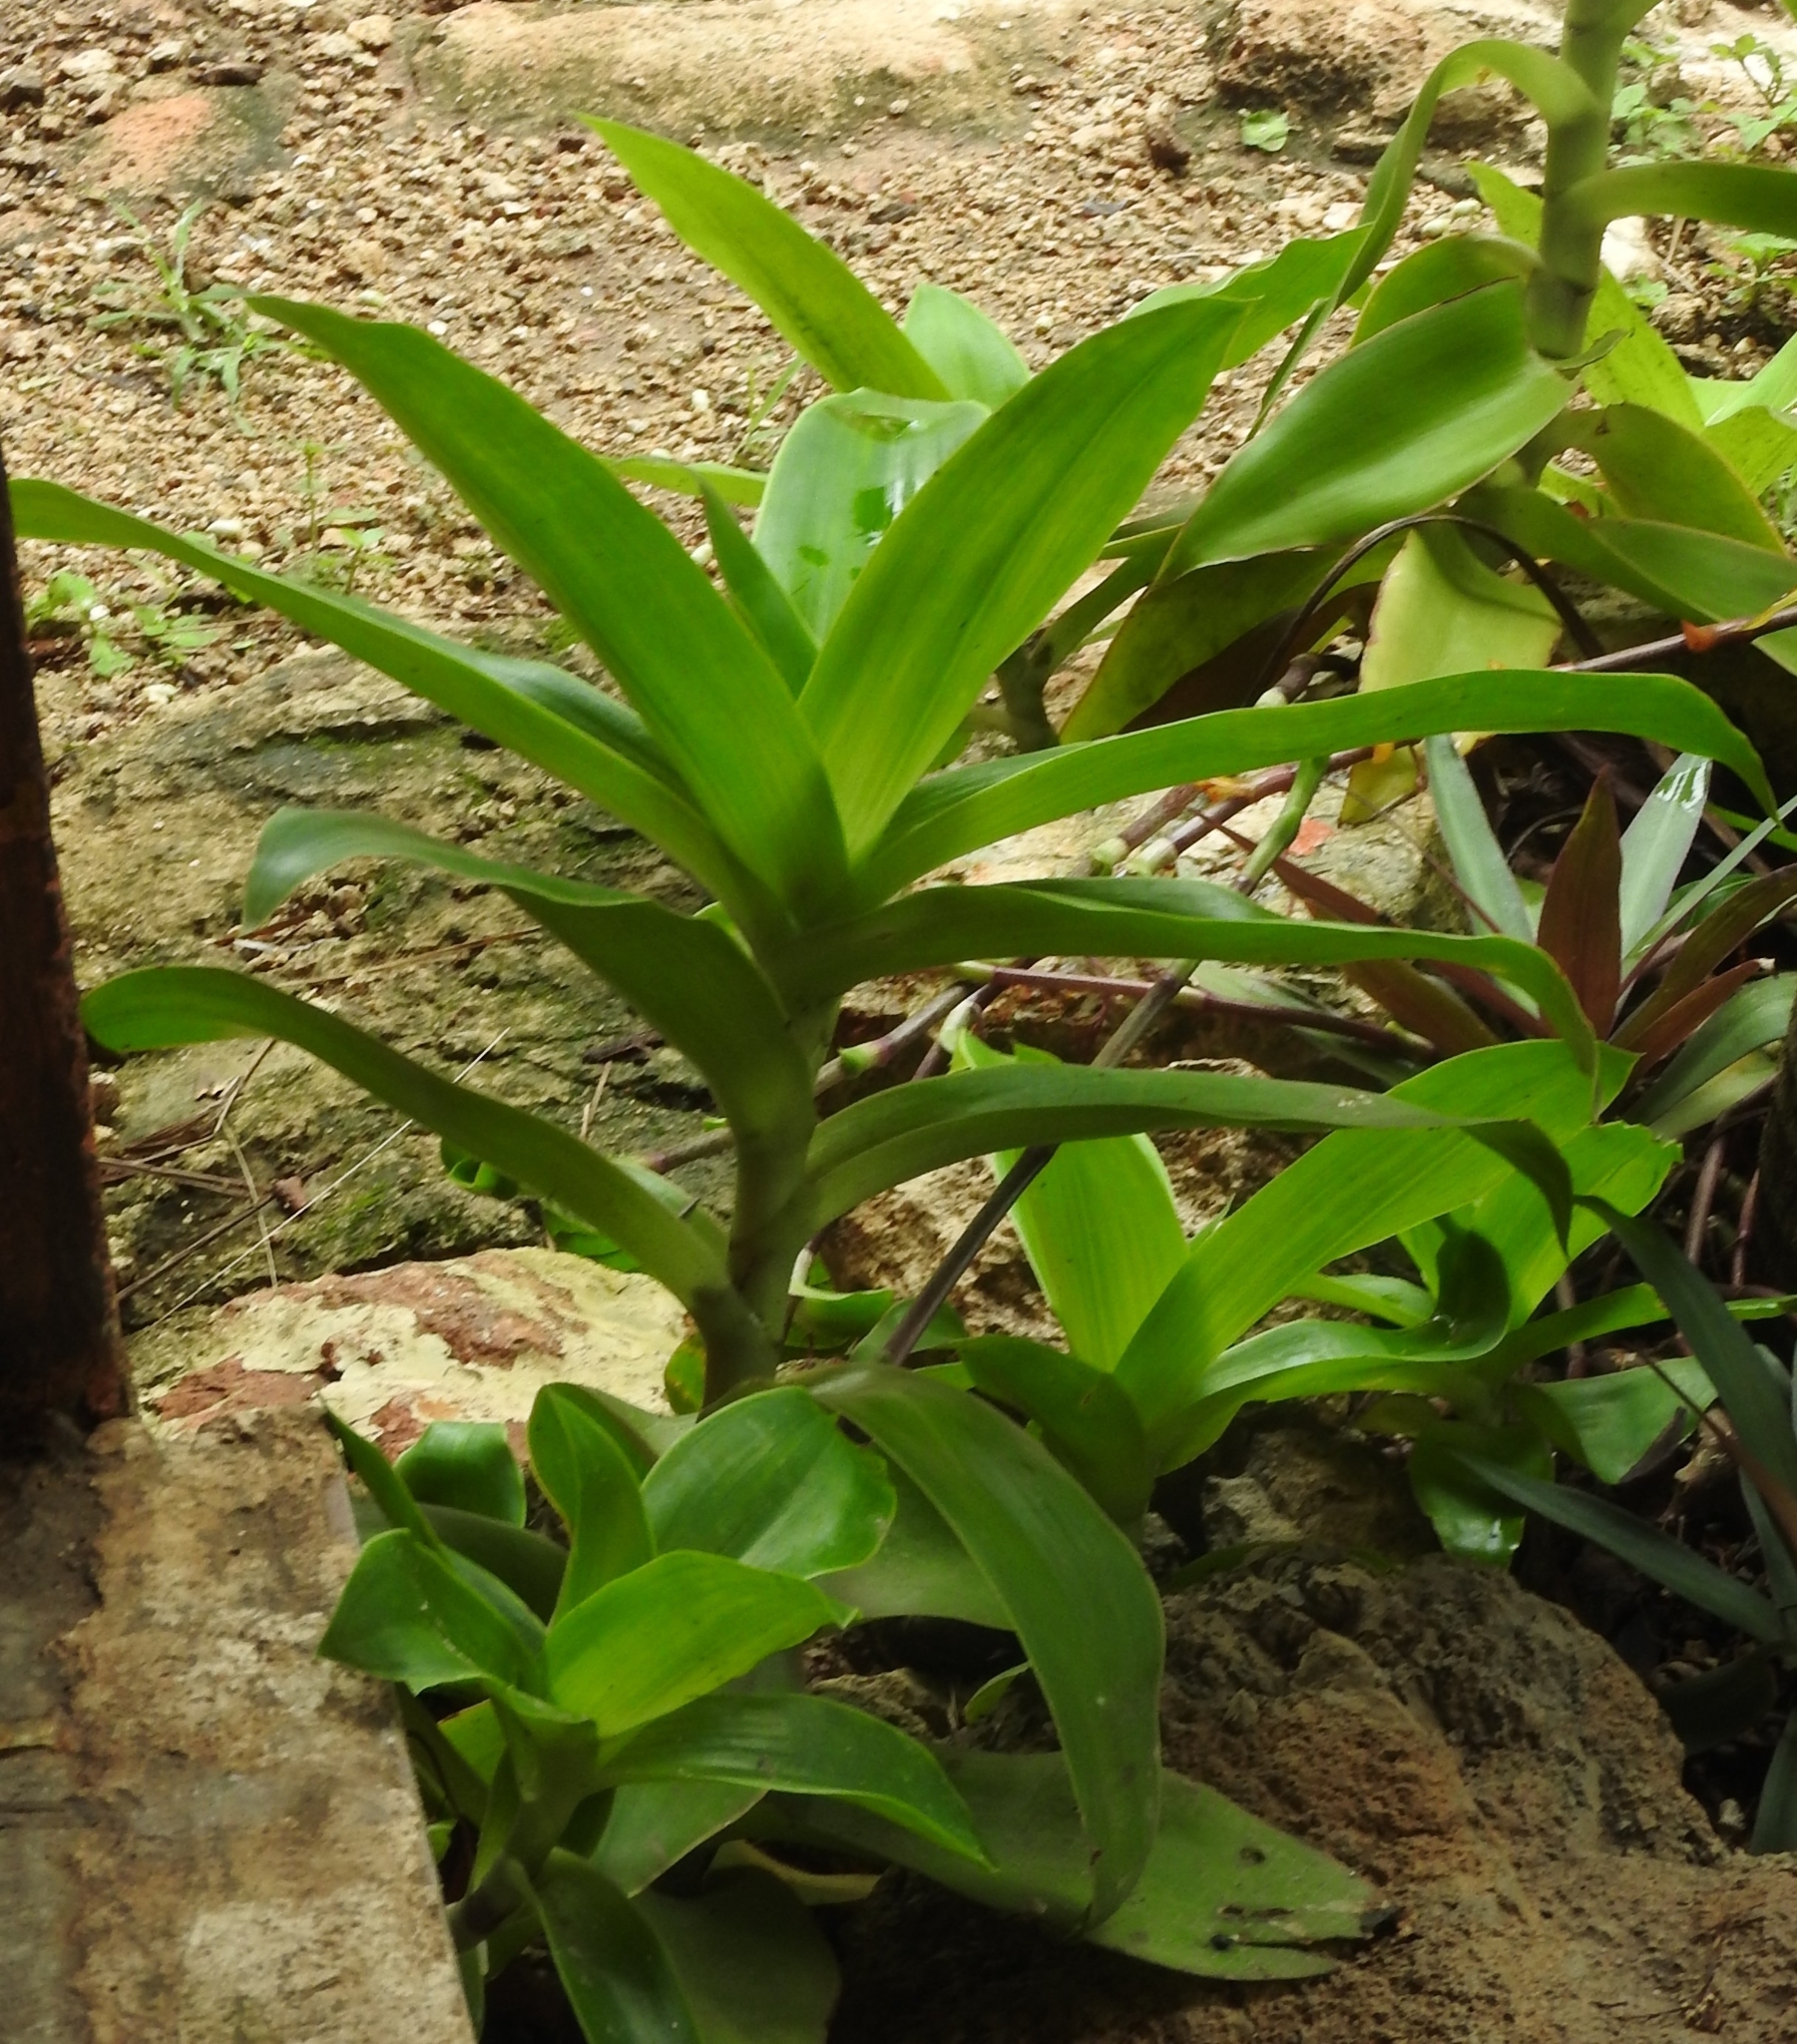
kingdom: Plantae
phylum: Tracheophyta
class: Liliopsida
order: Commelinales
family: Commelinaceae
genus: Callisia
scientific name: Callisia fragrans
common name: Basketplant
